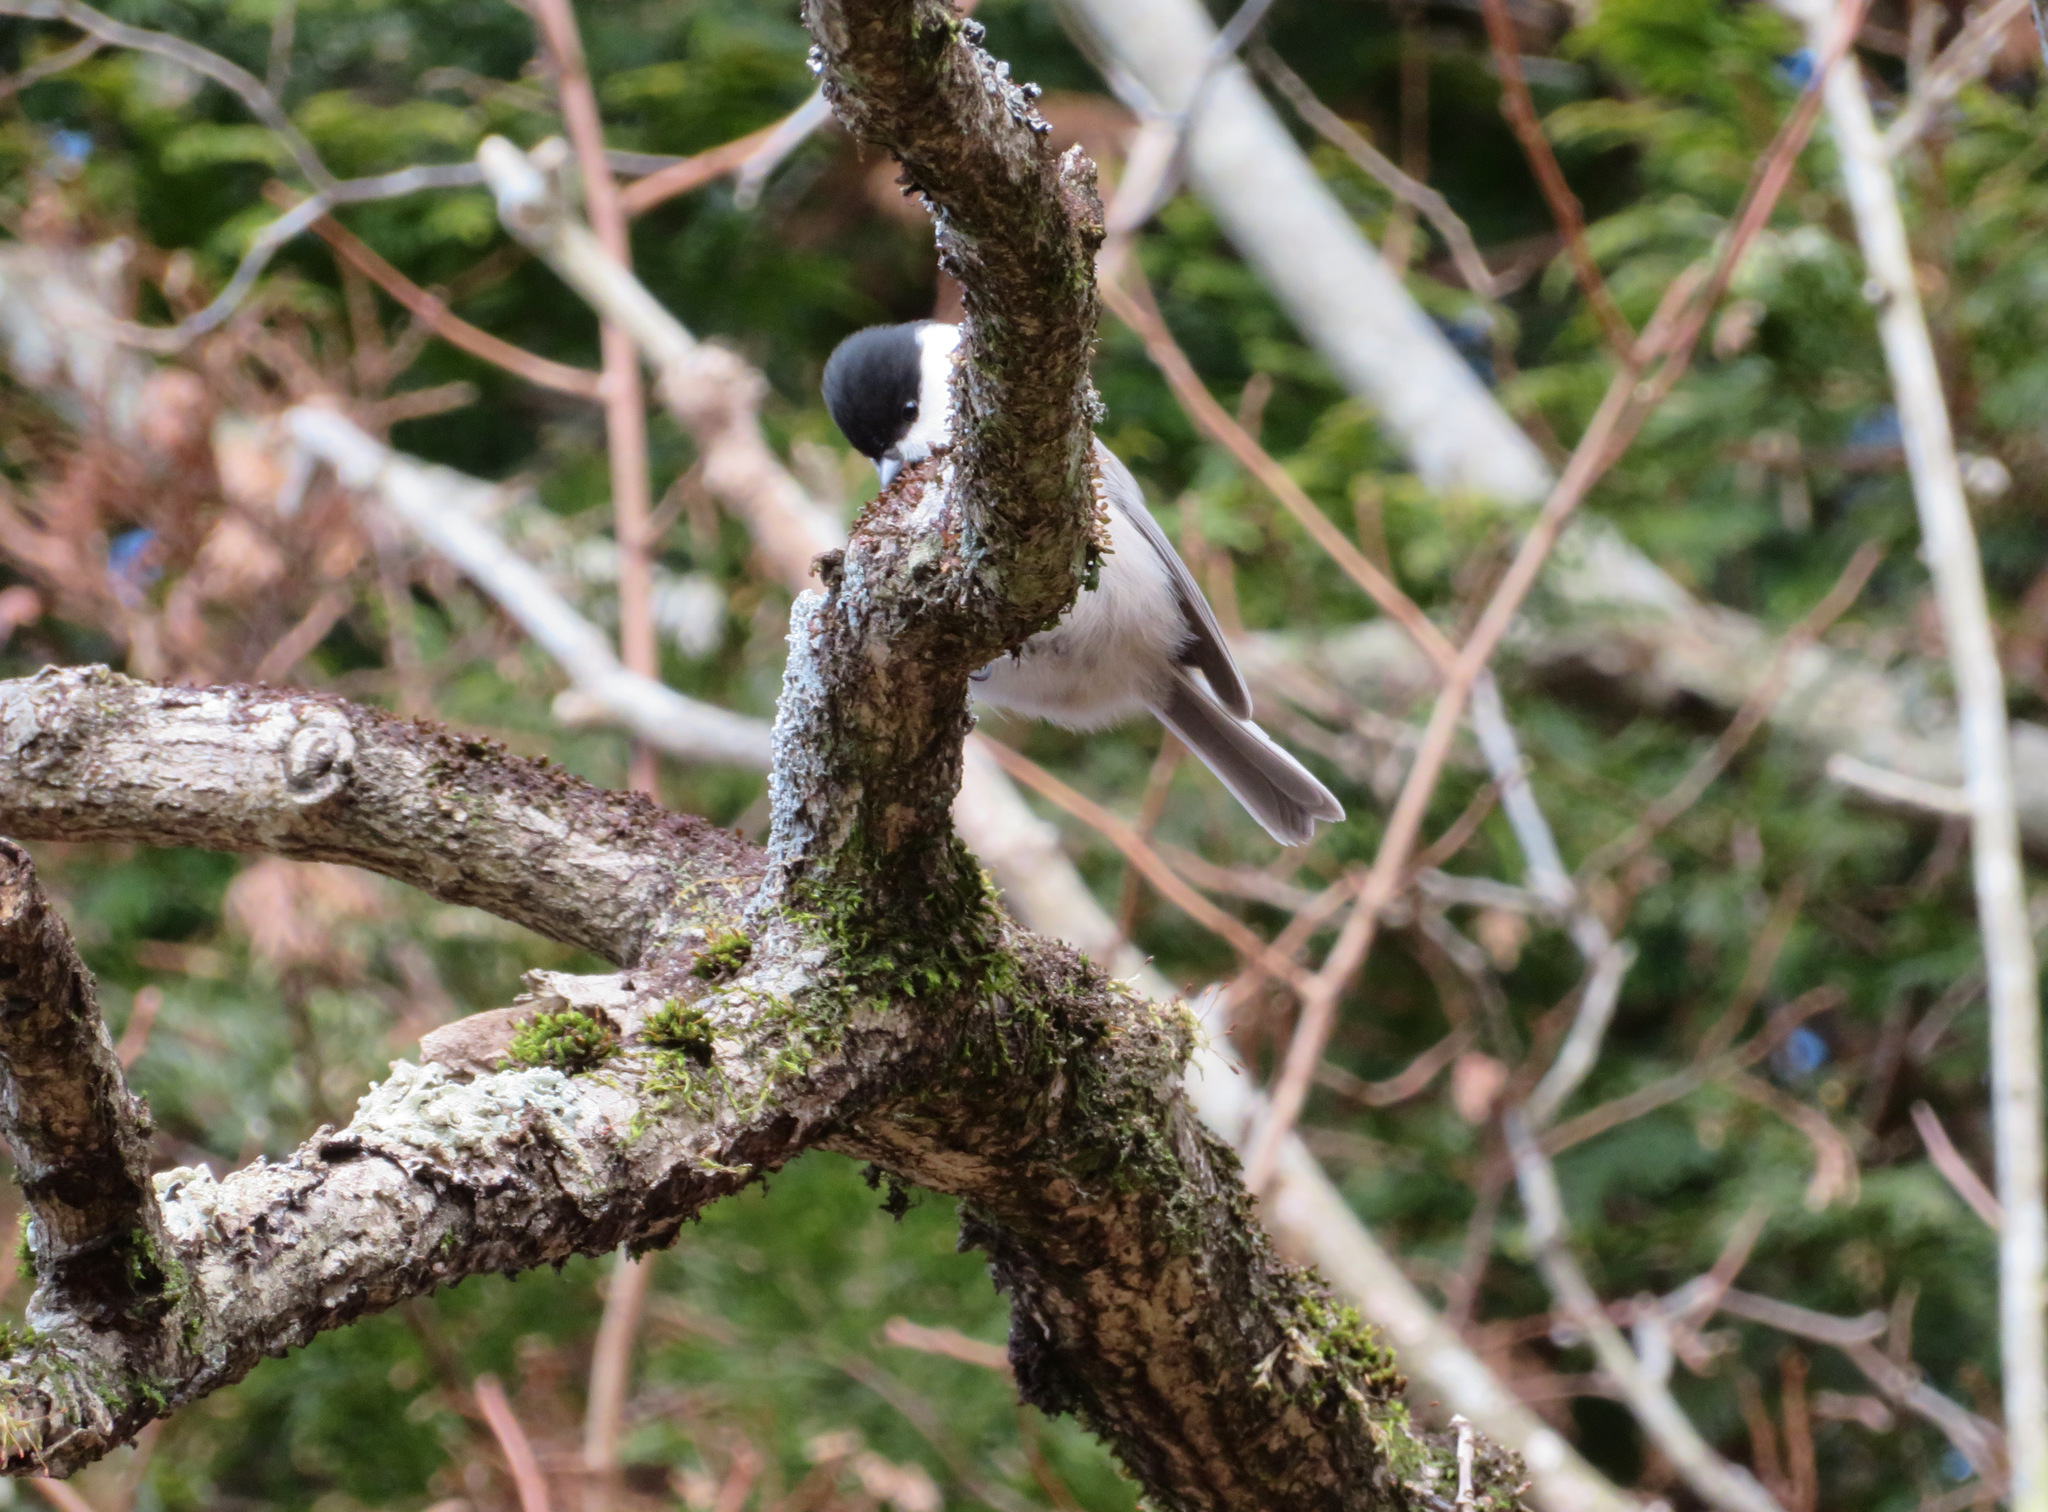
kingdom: Animalia
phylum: Chordata
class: Aves
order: Passeriformes
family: Paridae
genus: Poecile
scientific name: Poecile montanus
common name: Willow tit
